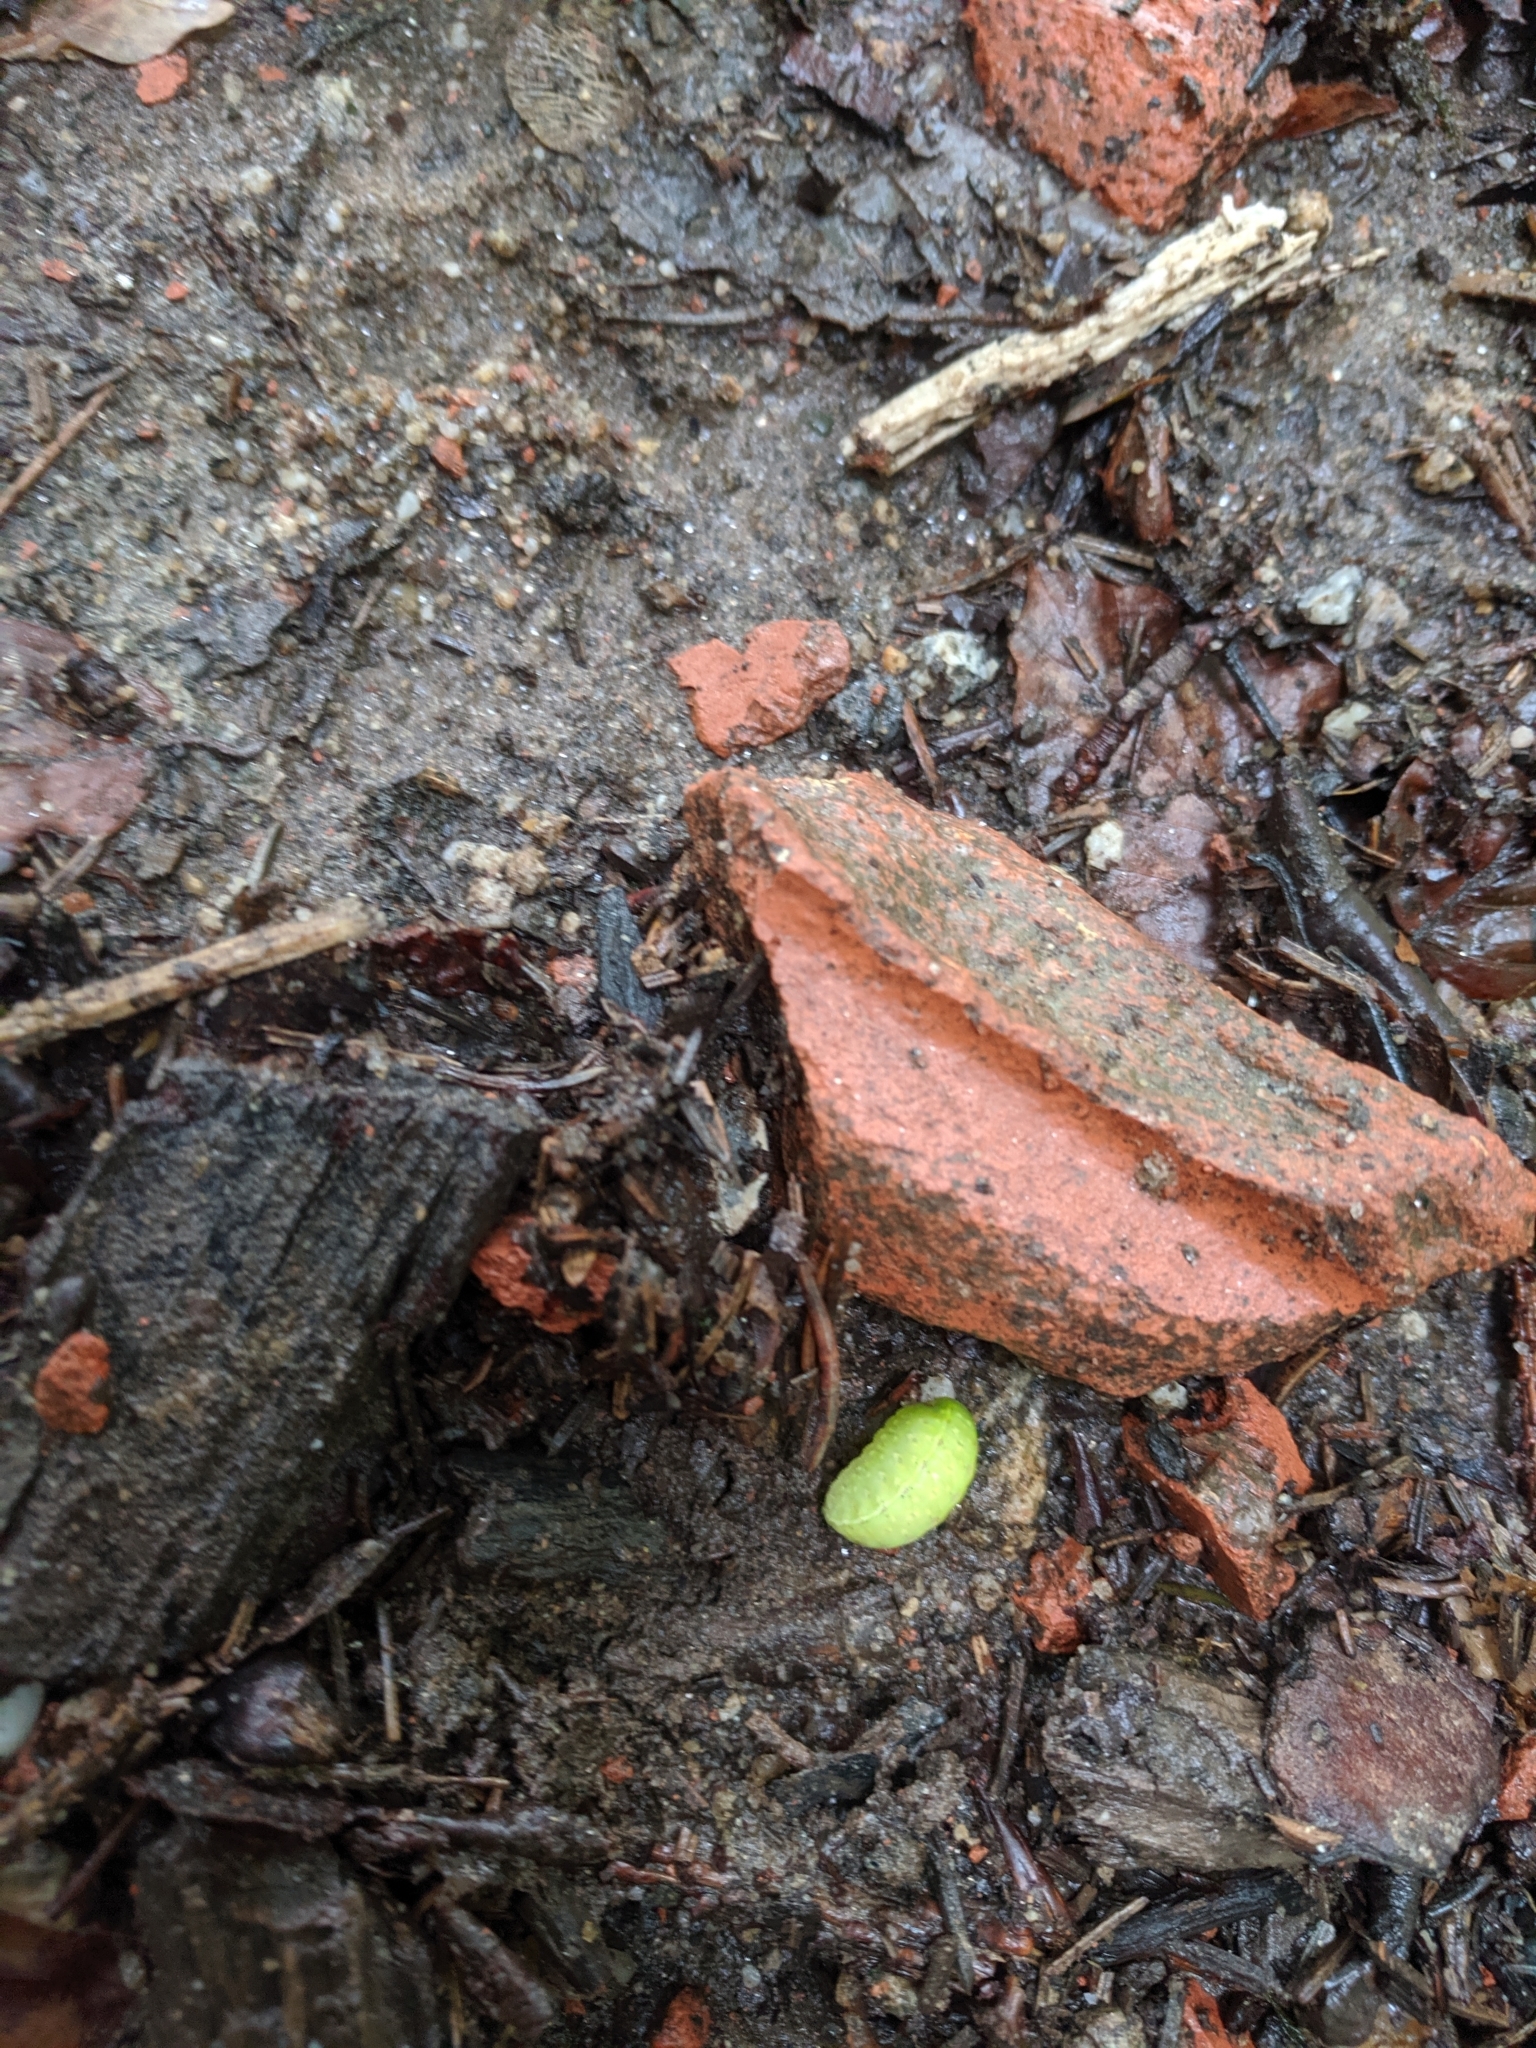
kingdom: Animalia
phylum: Arthropoda
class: Insecta
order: Lepidoptera
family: Limacodidae
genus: Apoda
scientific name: Apoda limacodes
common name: Festoon
